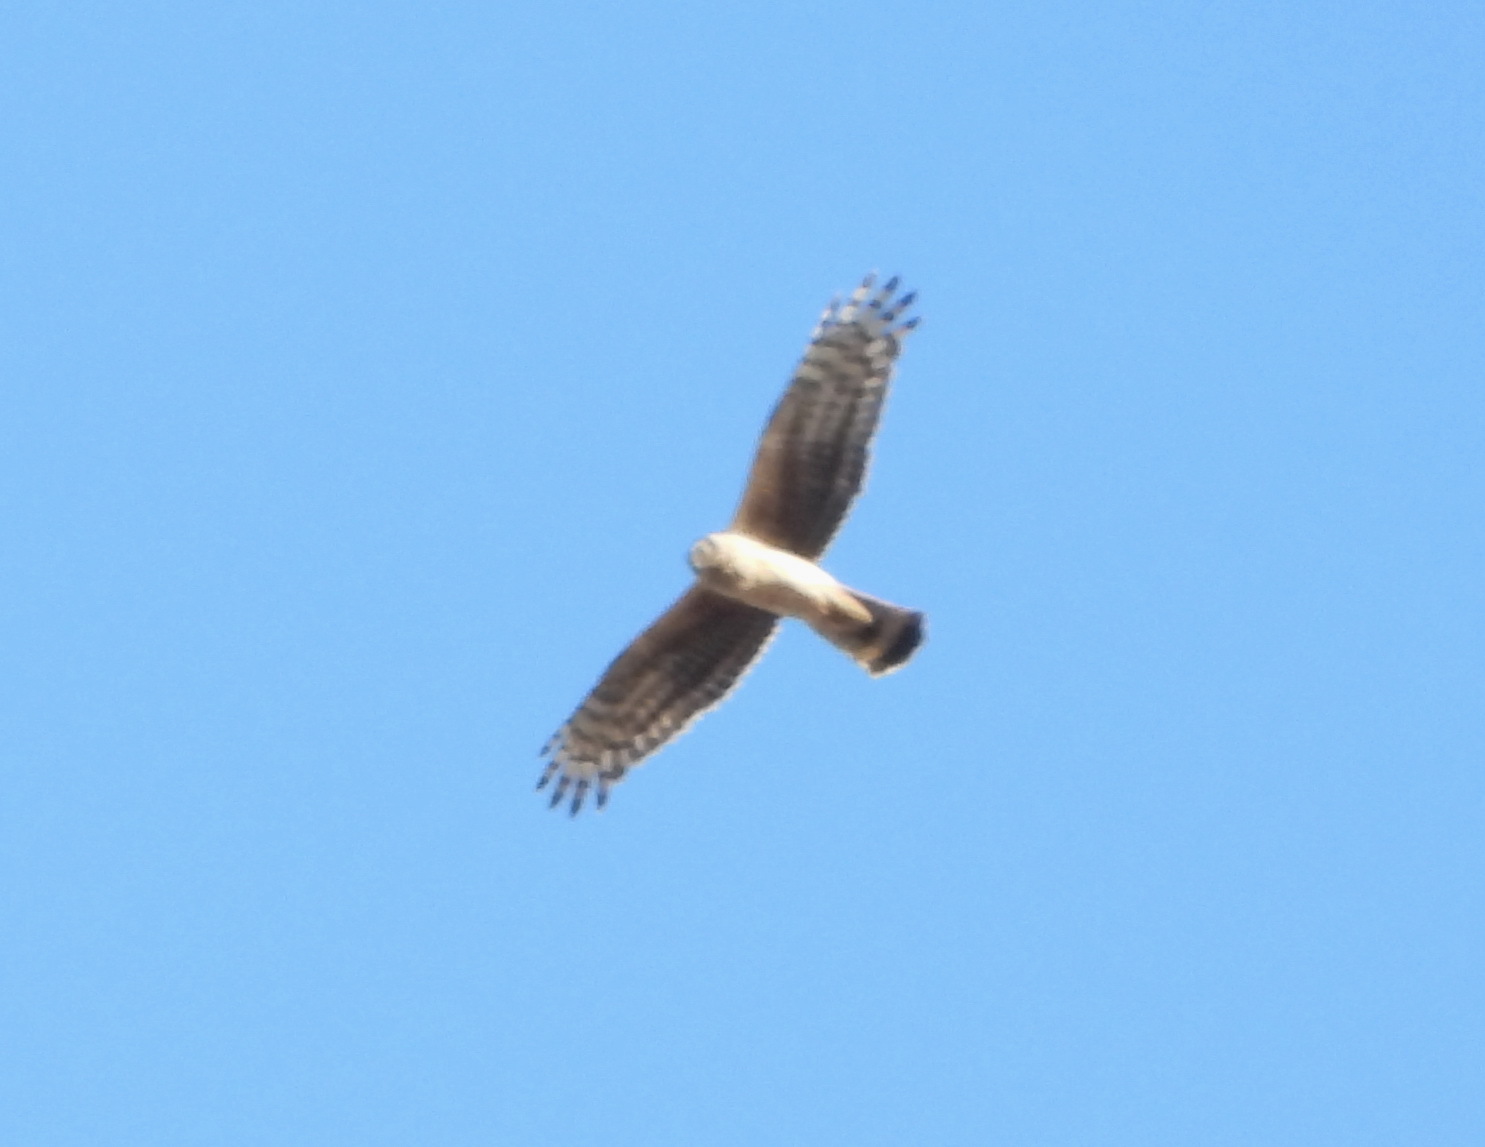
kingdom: Animalia
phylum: Chordata
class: Aves
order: Accipitriformes
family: Accipitridae
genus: Circus
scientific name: Circus cyaneus
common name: Hen harrier
